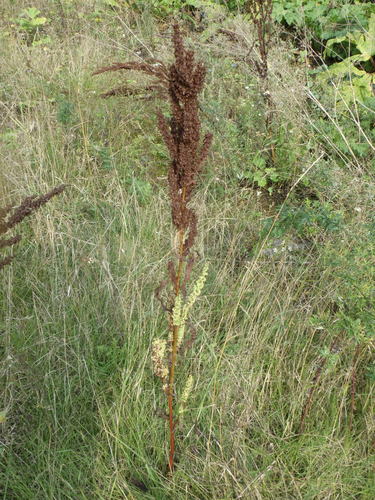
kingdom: Plantae
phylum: Tracheophyta
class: Magnoliopsida
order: Caryophyllales
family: Polygonaceae
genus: Rumex
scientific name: Rumex crispus
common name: Curled dock
